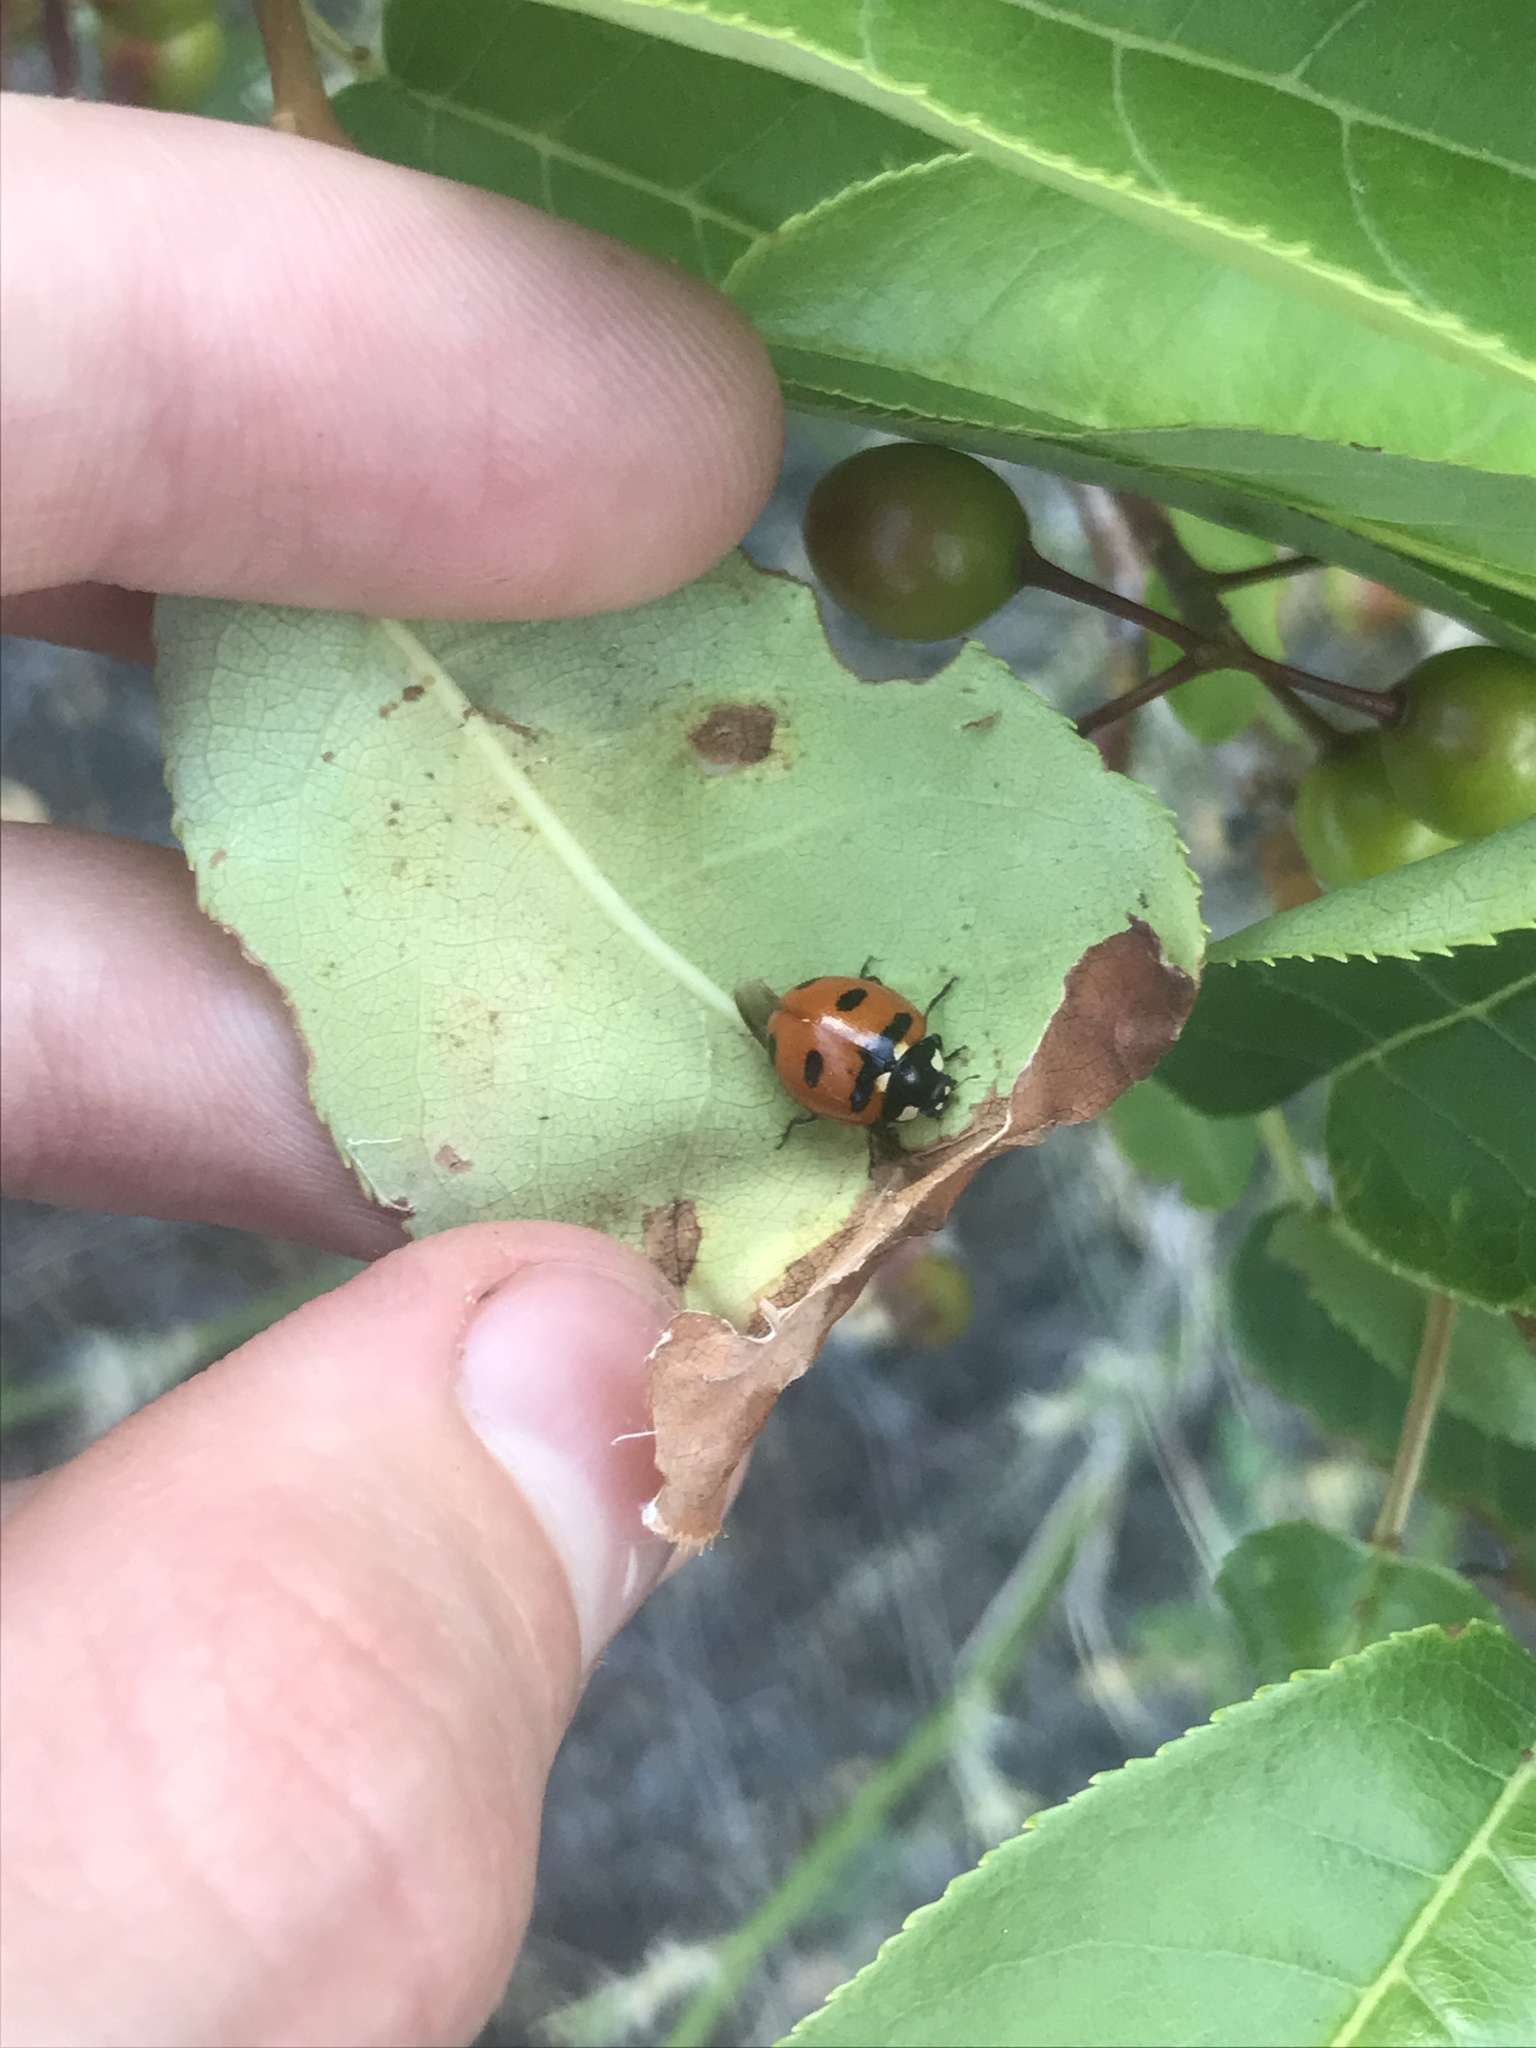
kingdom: Animalia
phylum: Arthropoda
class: Insecta
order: Coleoptera
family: Coccinellidae
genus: Coccinella
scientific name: Coccinella transversoguttata
